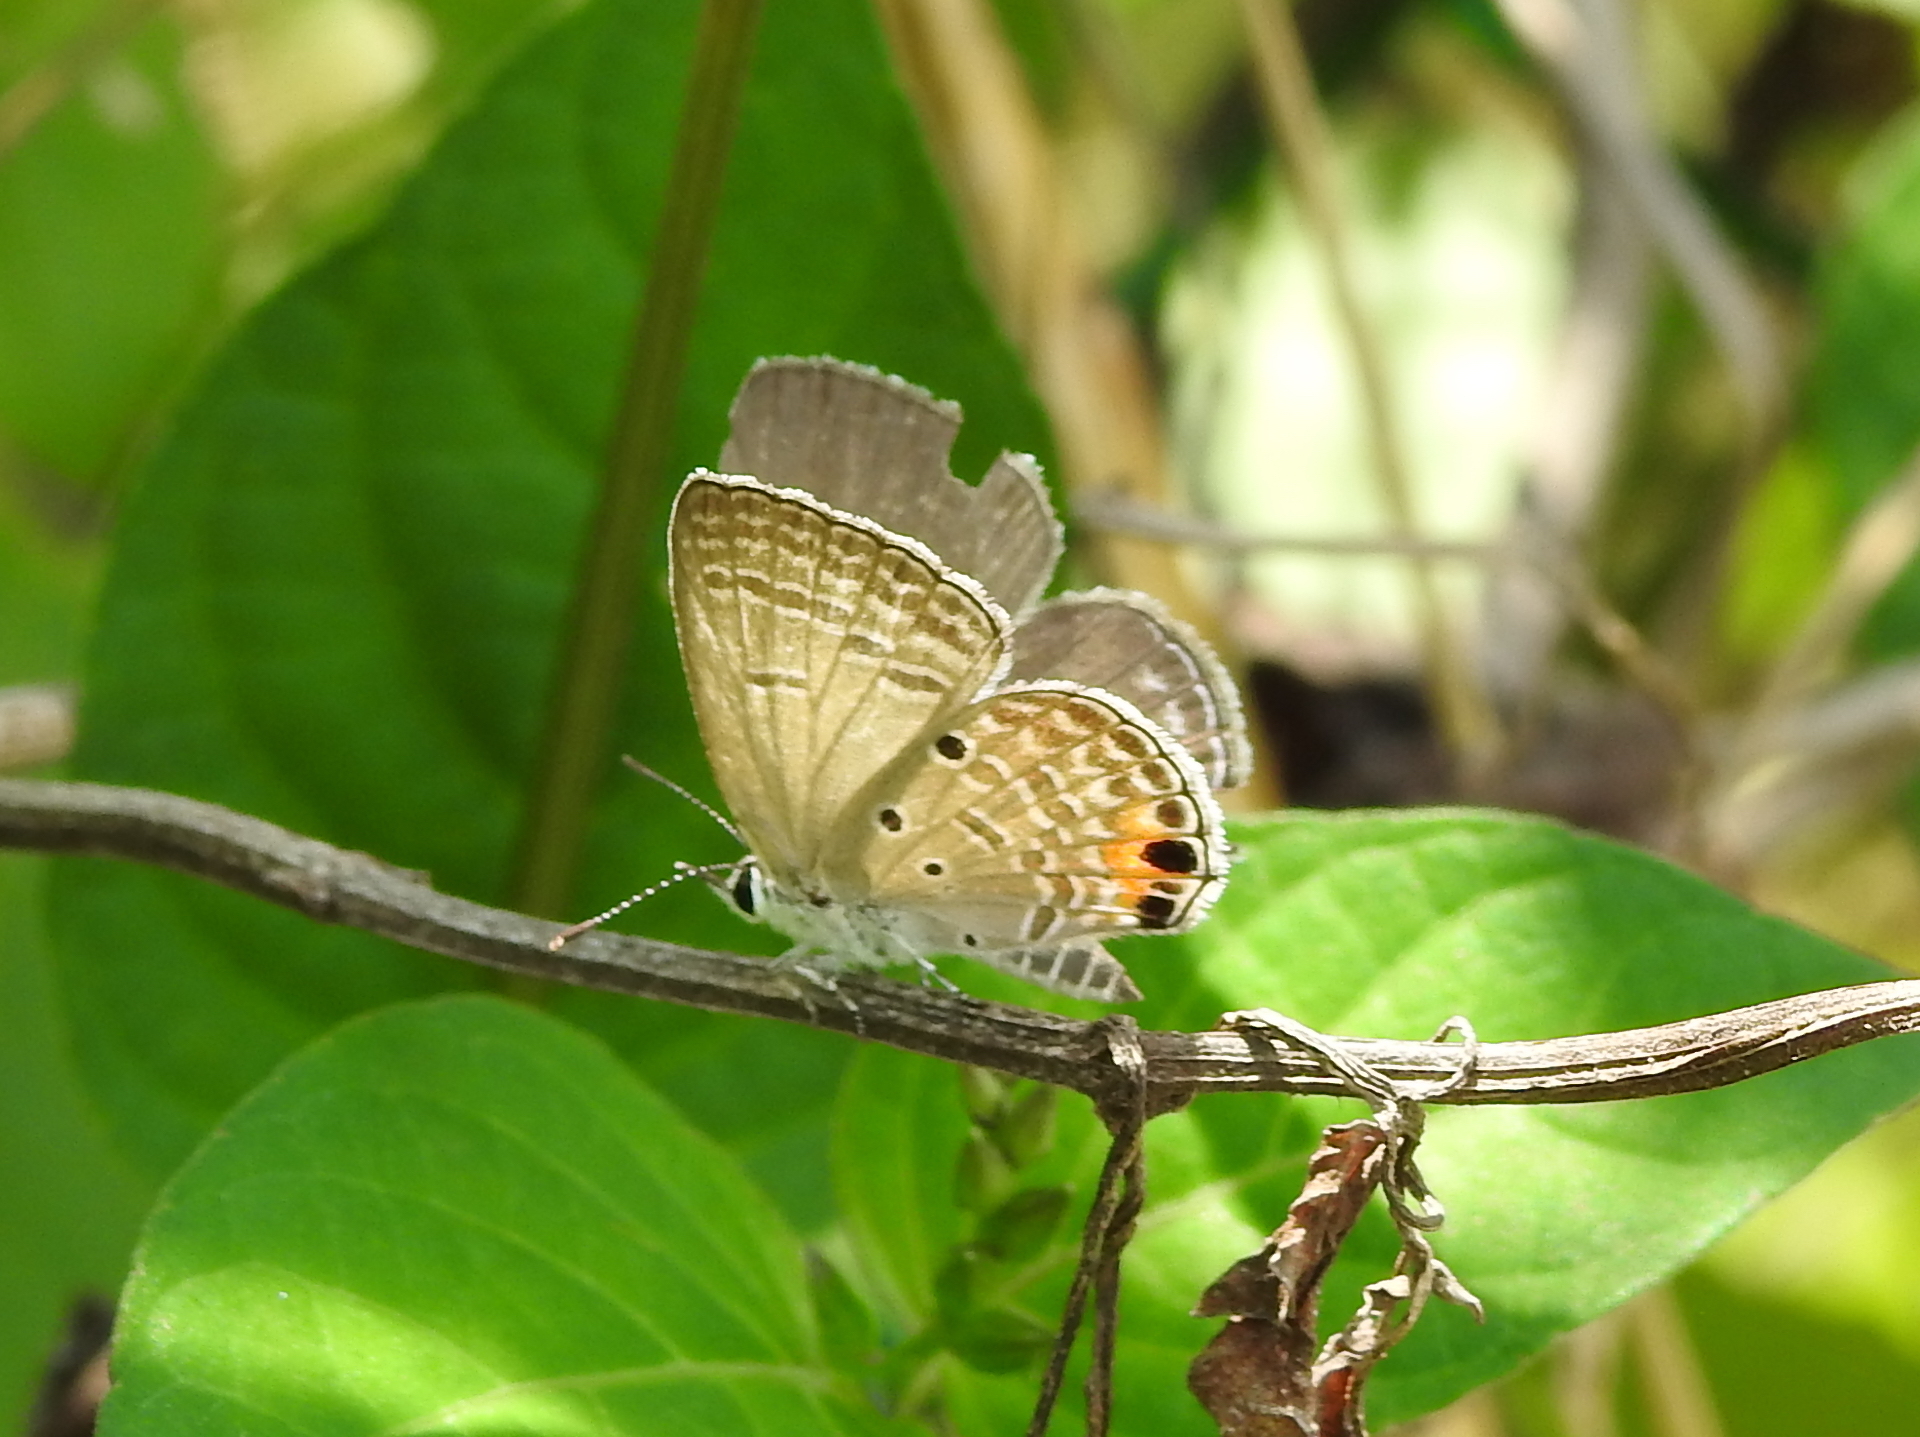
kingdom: Animalia
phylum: Arthropoda
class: Insecta
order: Lepidoptera
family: Lycaenidae
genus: Luthrodes
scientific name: Luthrodes pandava
